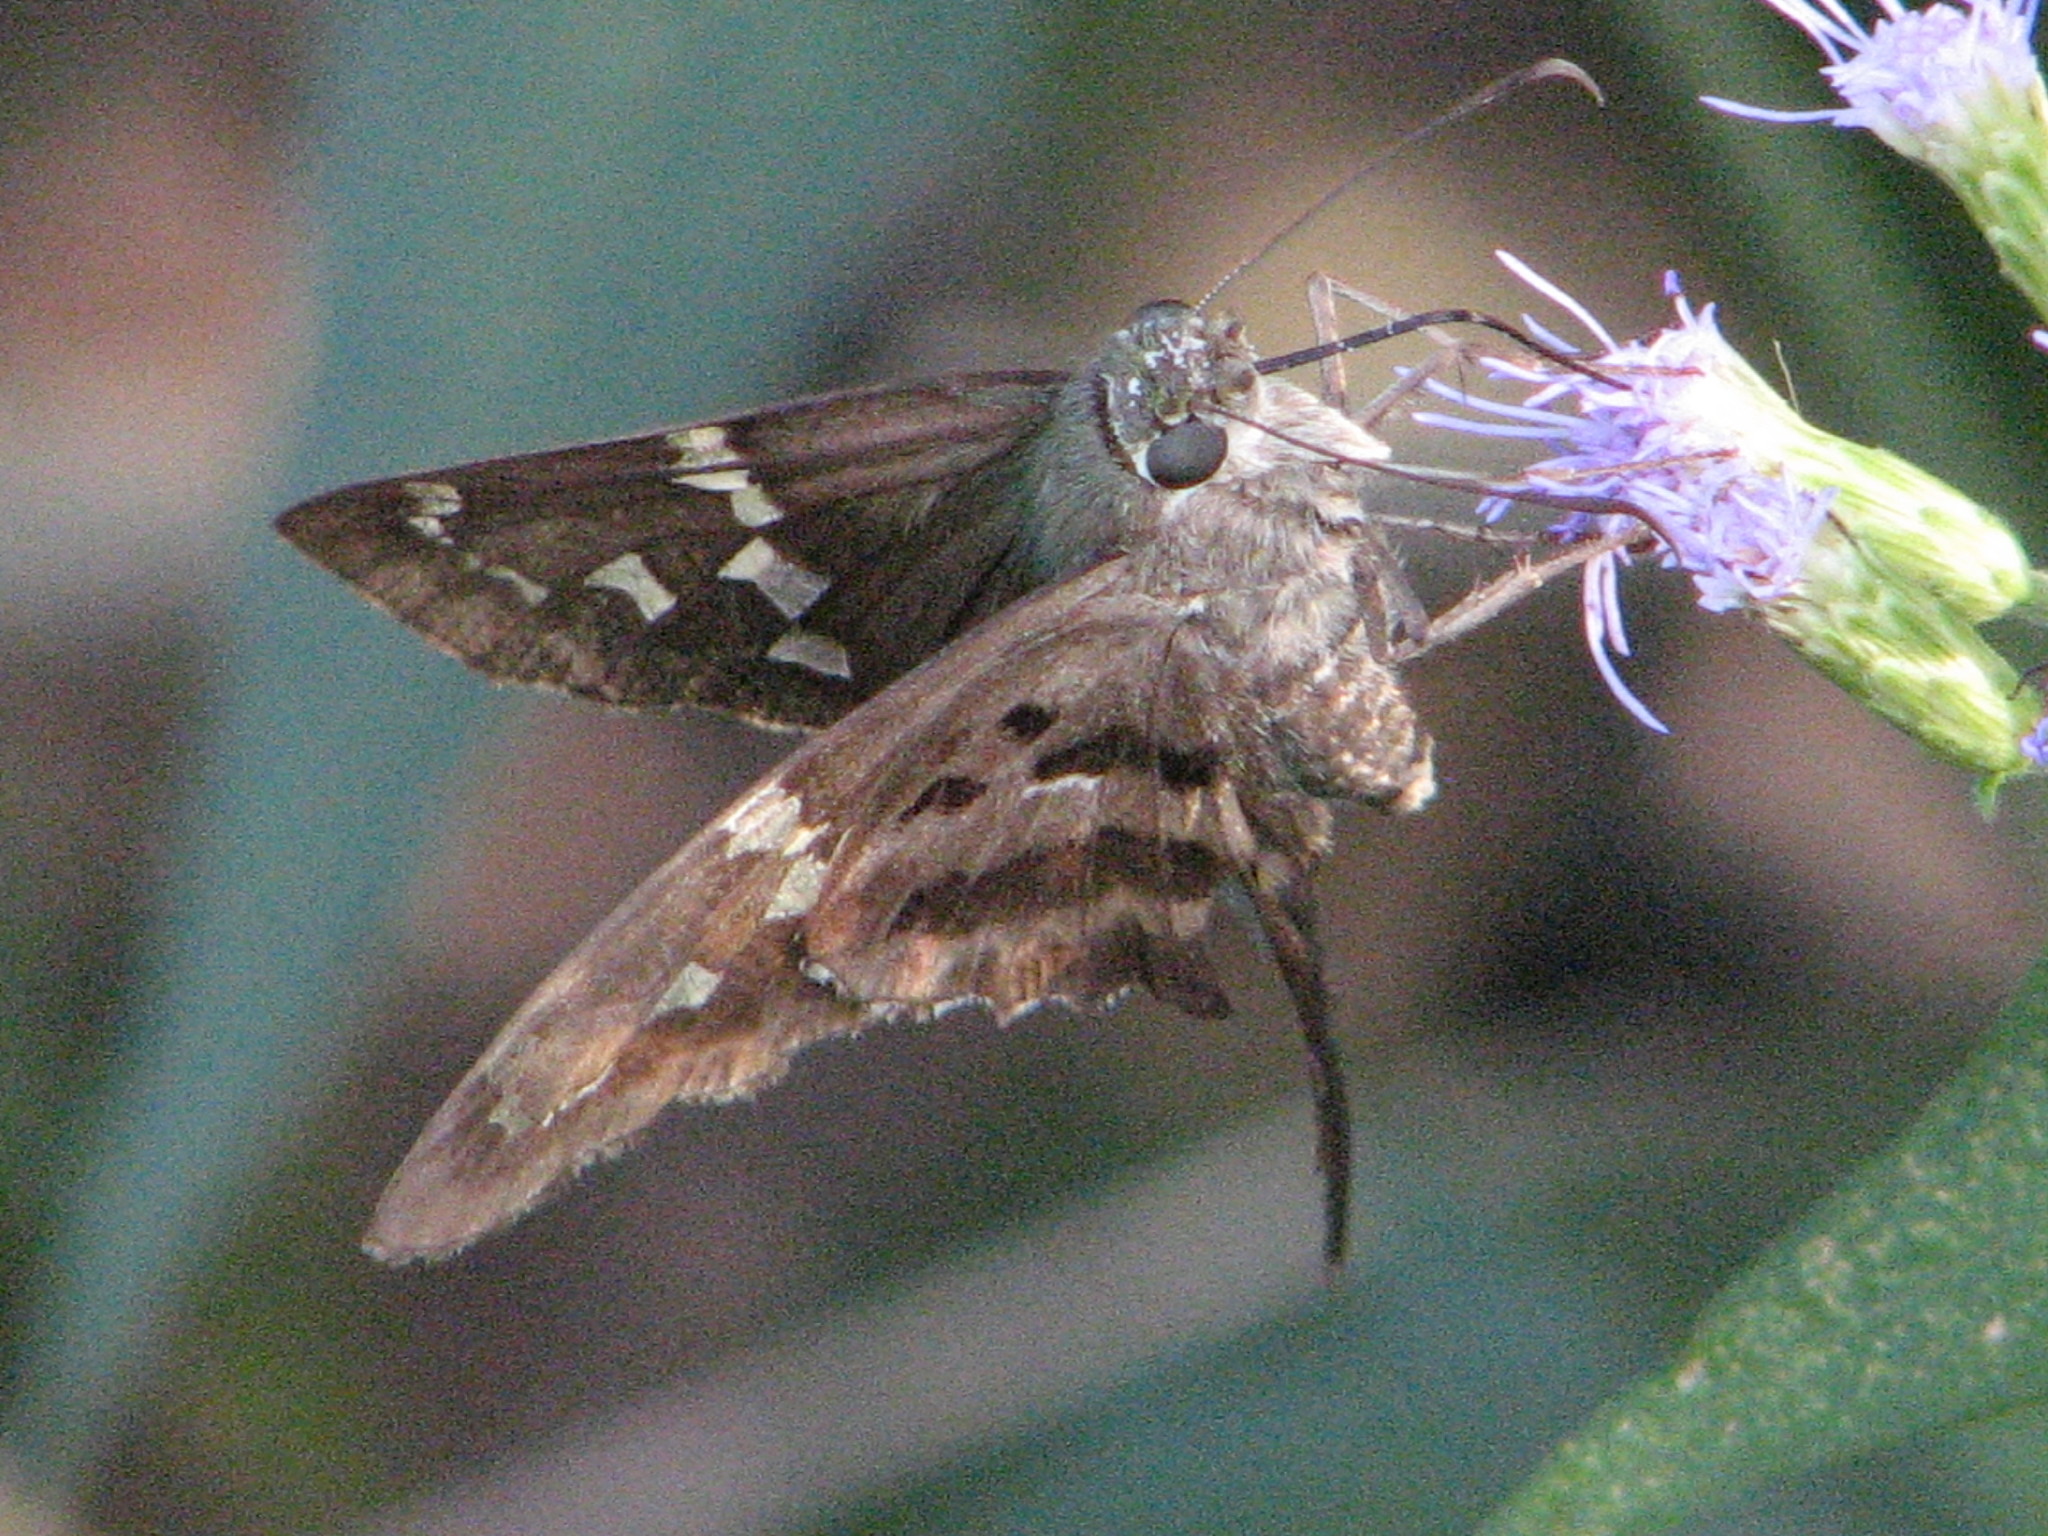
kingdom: Animalia
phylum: Arthropoda
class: Insecta
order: Lepidoptera
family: Hesperiidae
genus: Urbanus
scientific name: Urbanus proteus
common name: Long-tailed skipper
